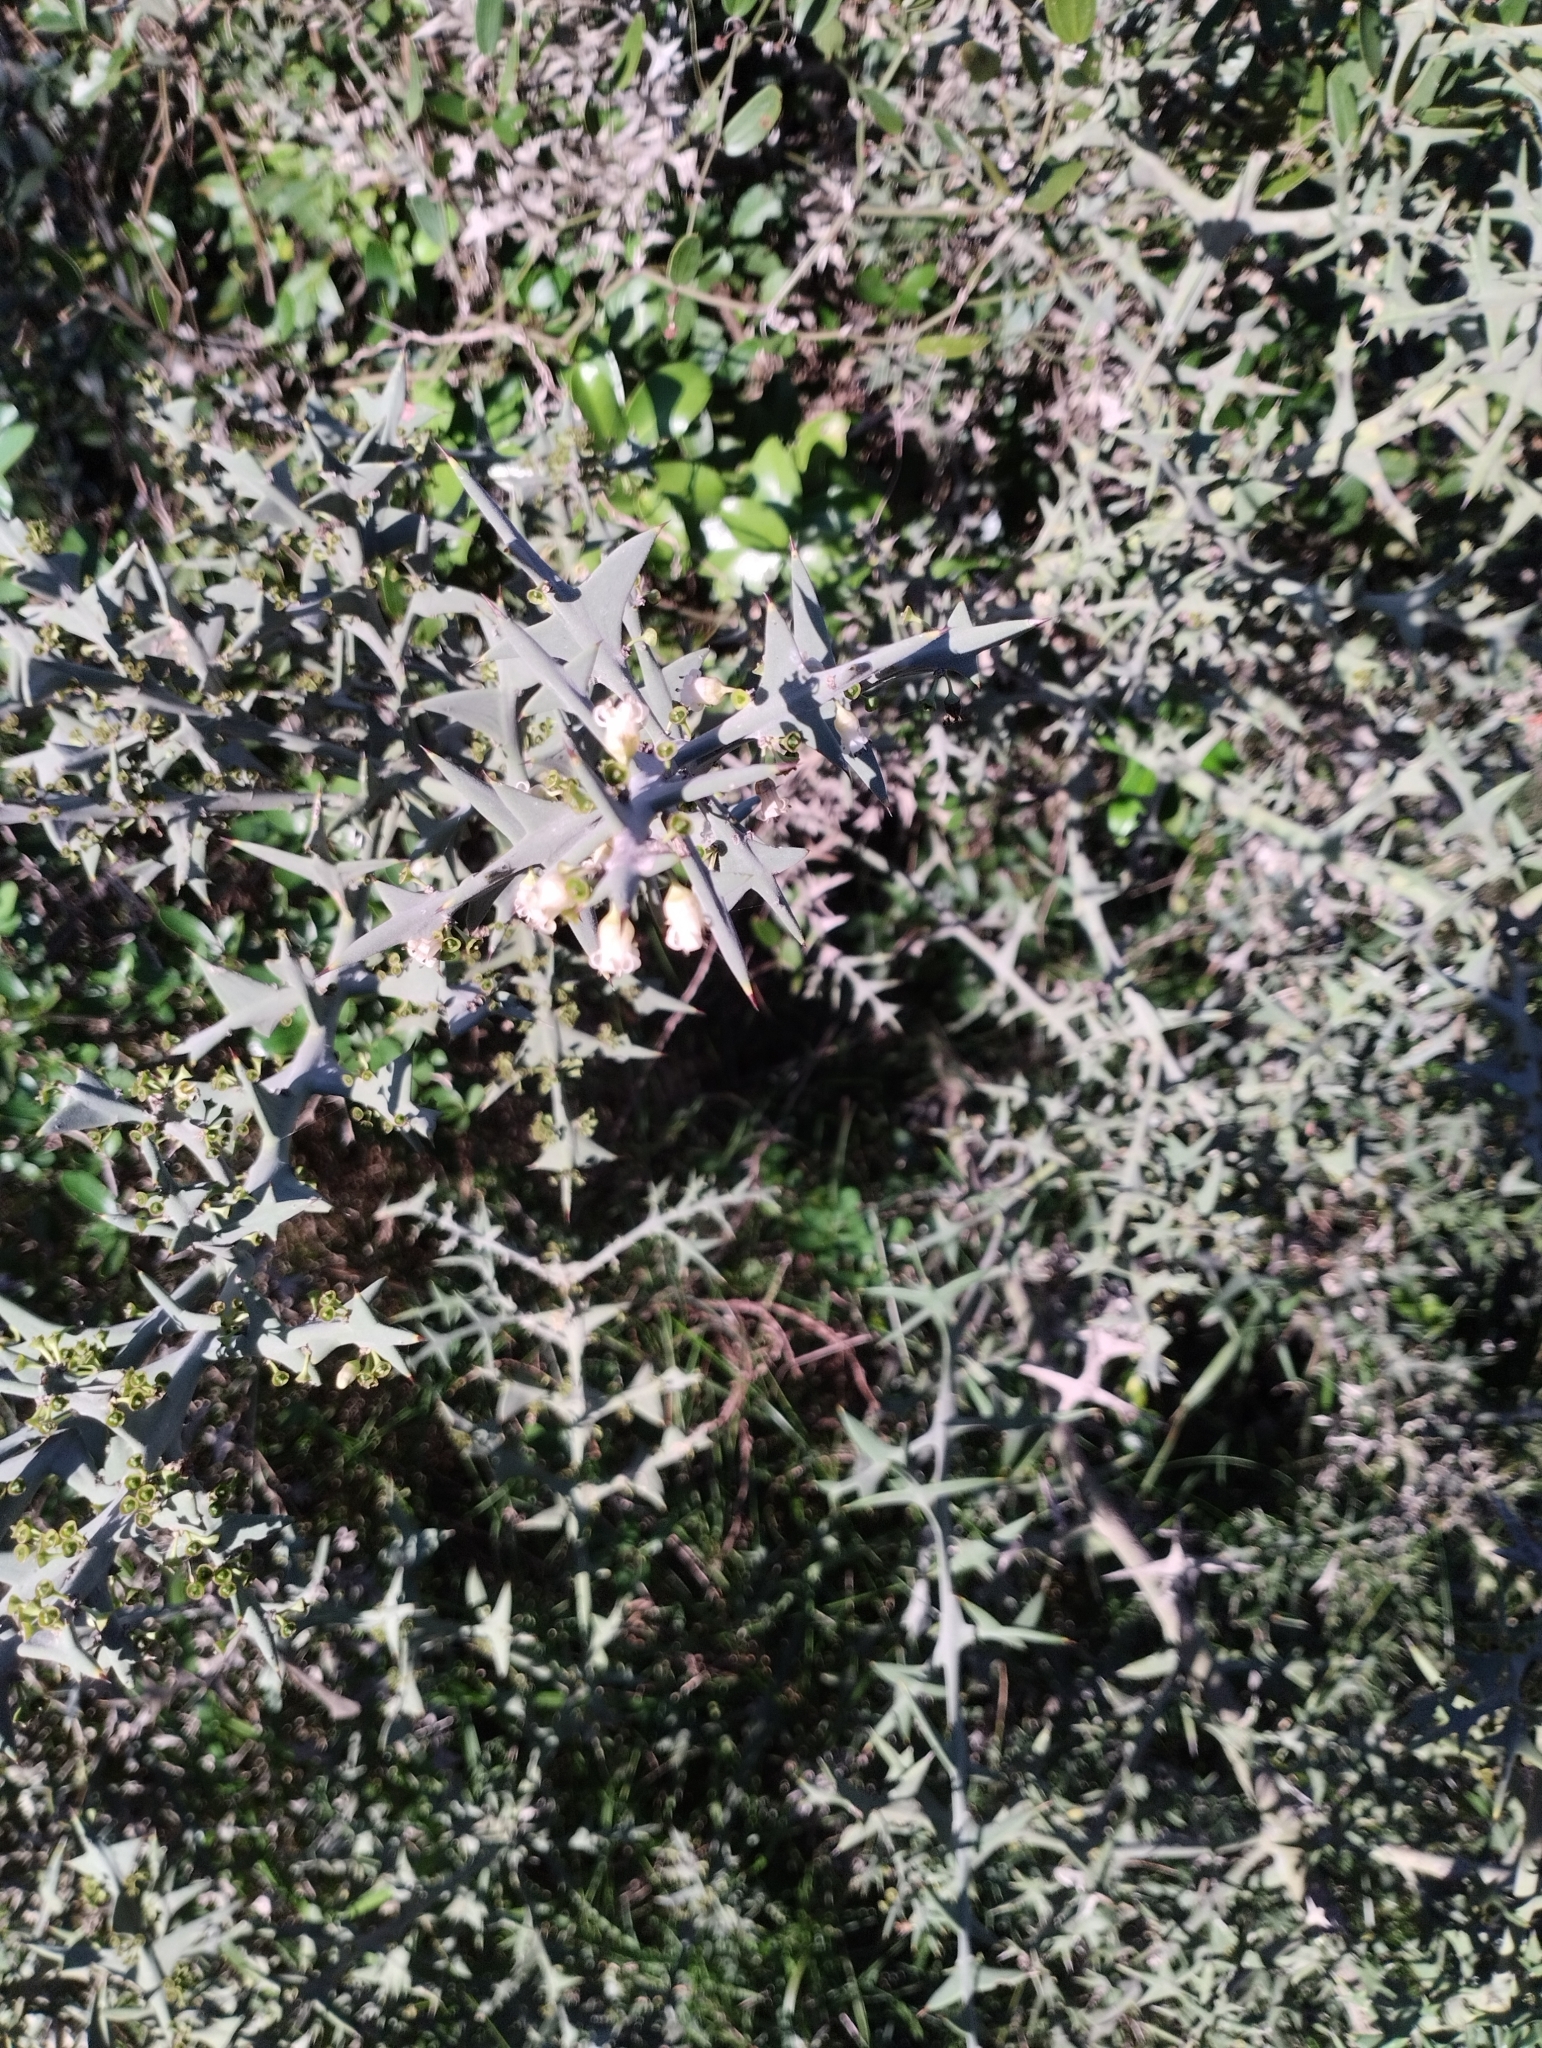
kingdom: Plantae
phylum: Tracheophyta
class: Magnoliopsida
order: Rosales
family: Rhamnaceae
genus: Colletia
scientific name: Colletia paradoxa
